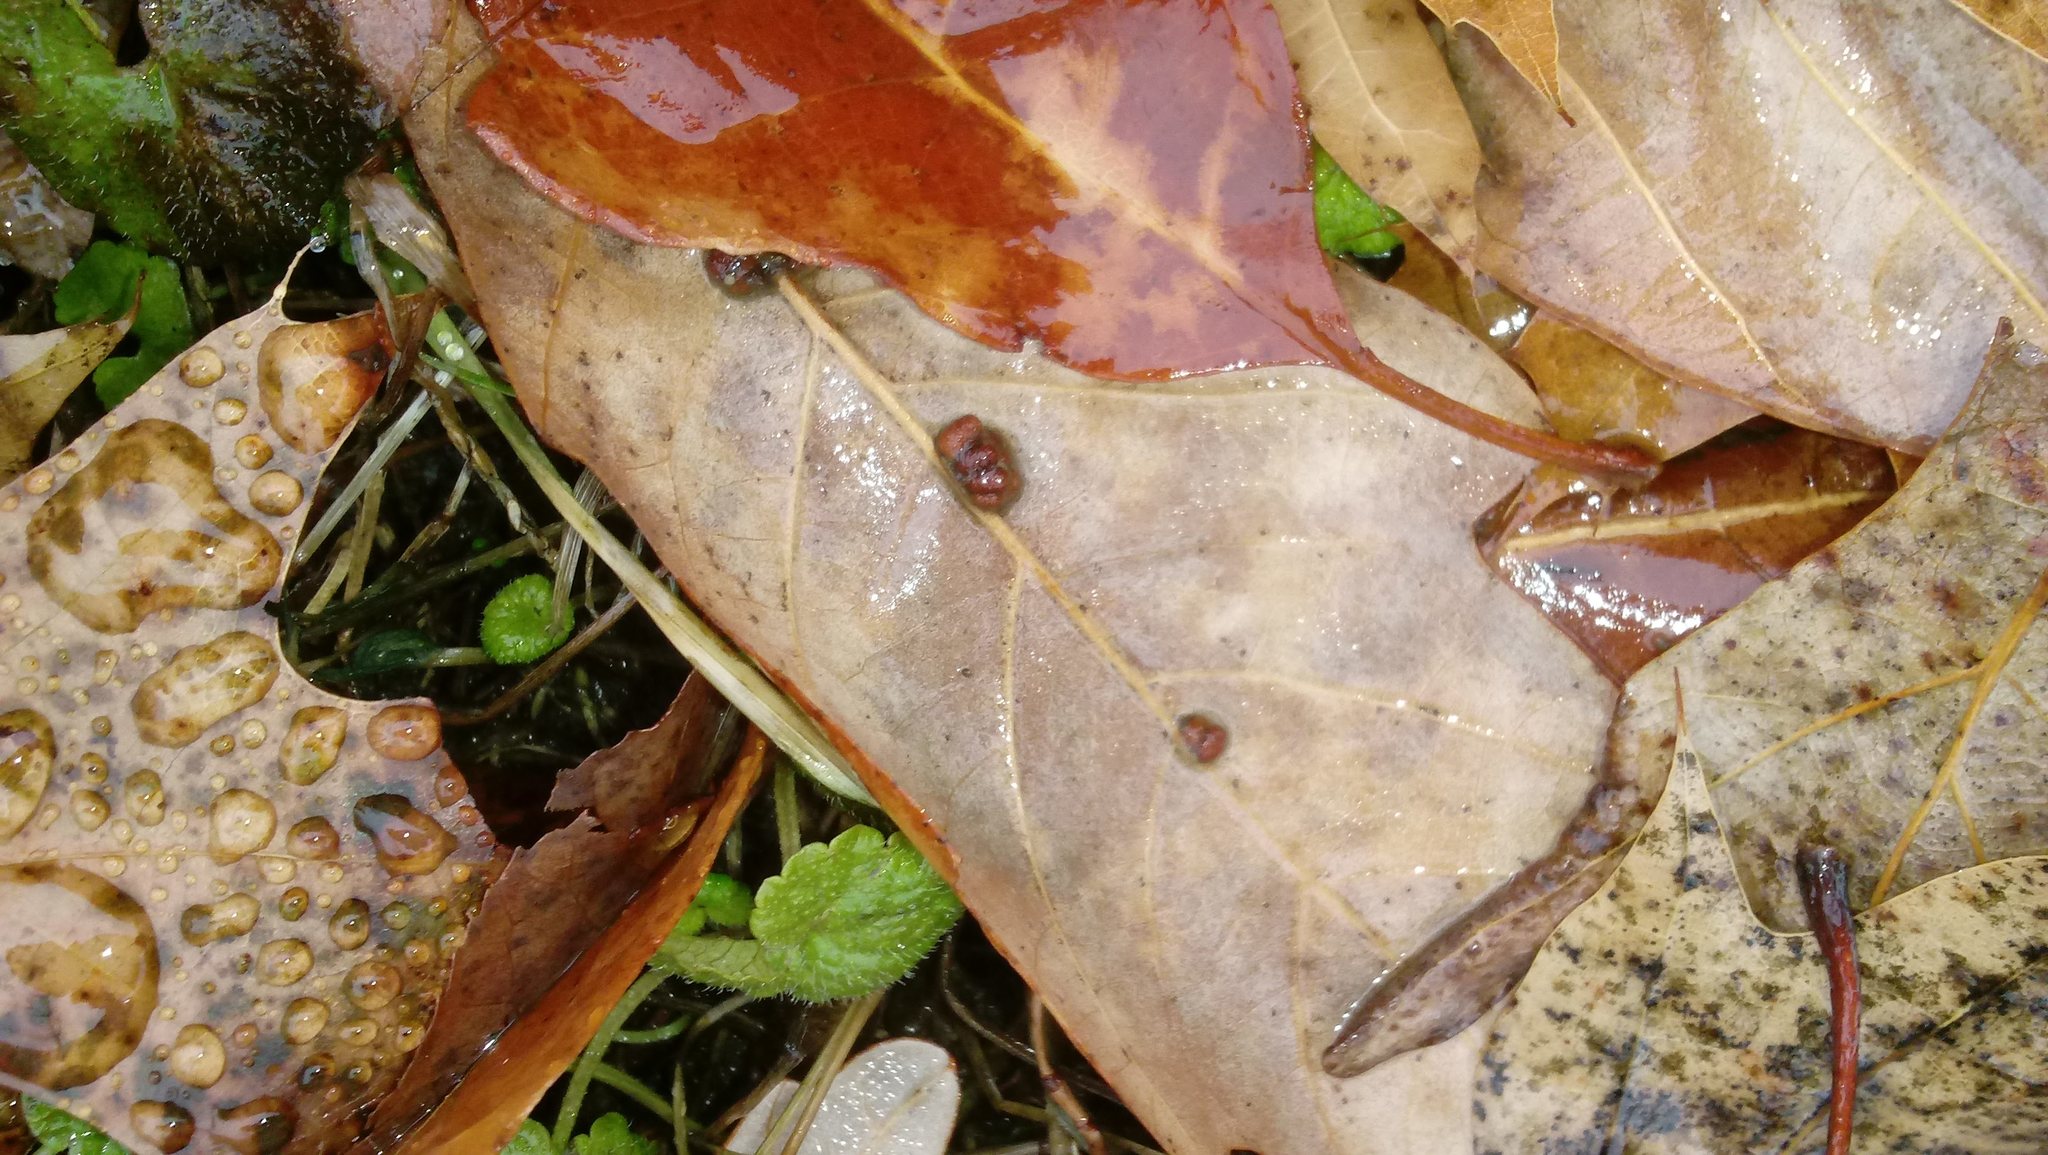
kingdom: Animalia
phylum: Arthropoda
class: Insecta
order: Hymenoptera
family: Cynipidae
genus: Andricus
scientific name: Andricus Druon ignotum
